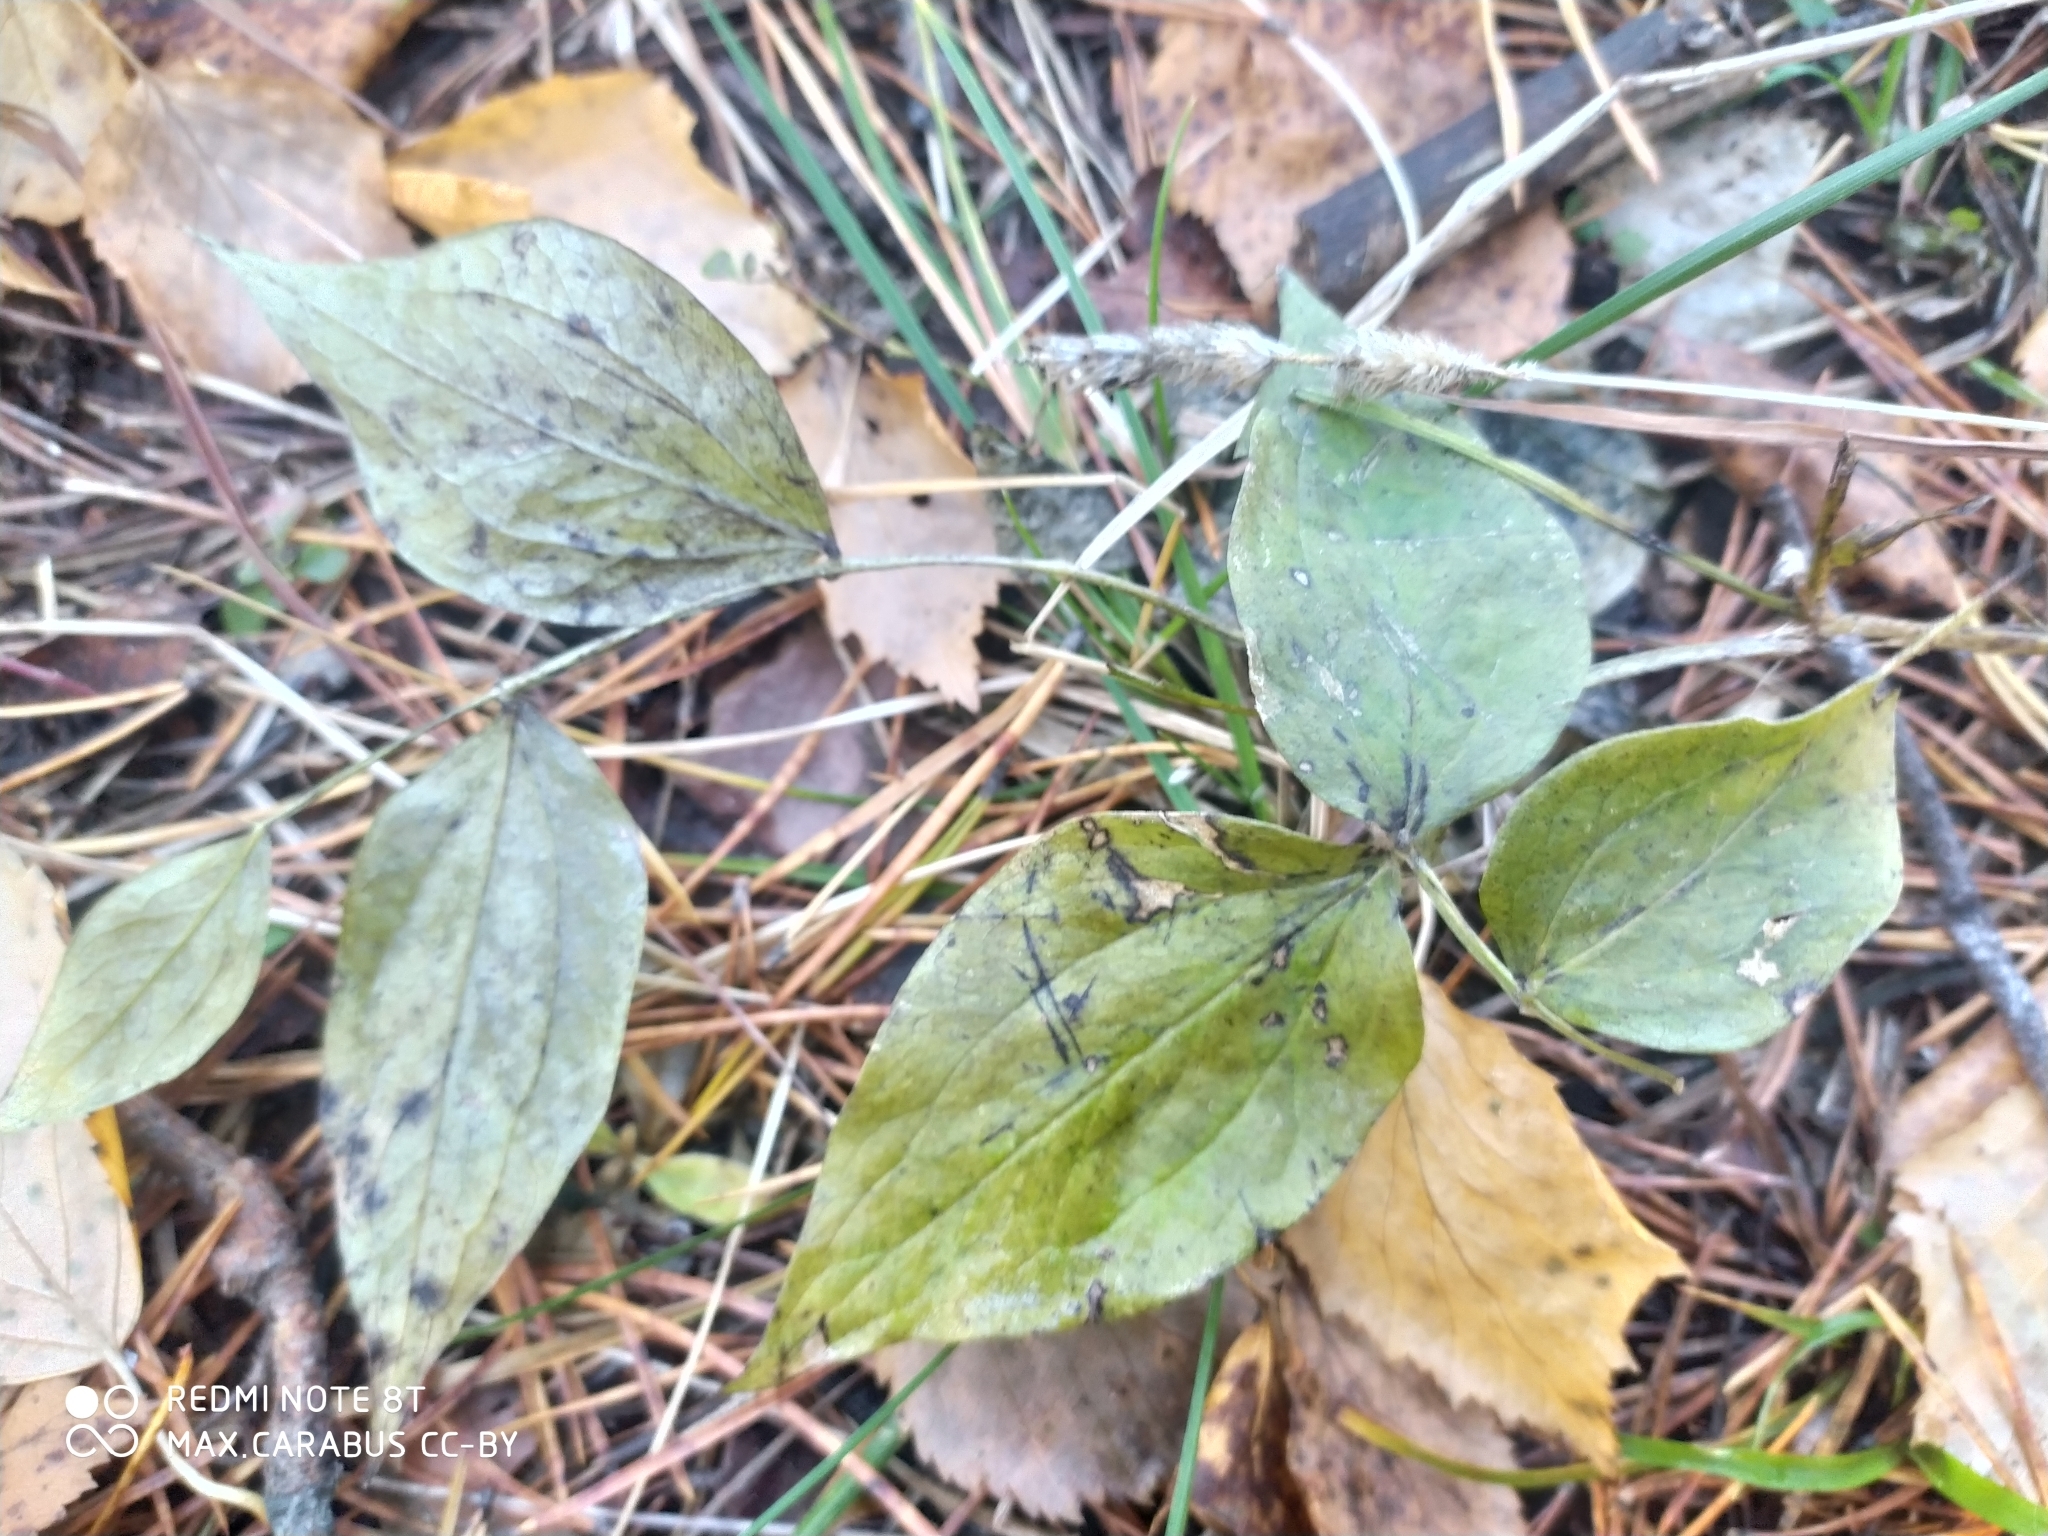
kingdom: Plantae
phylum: Tracheophyta
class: Magnoliopsida
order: Fabales
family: Fabaceae
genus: Lathyrus
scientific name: Lathyrus vernus
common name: Spring pea
